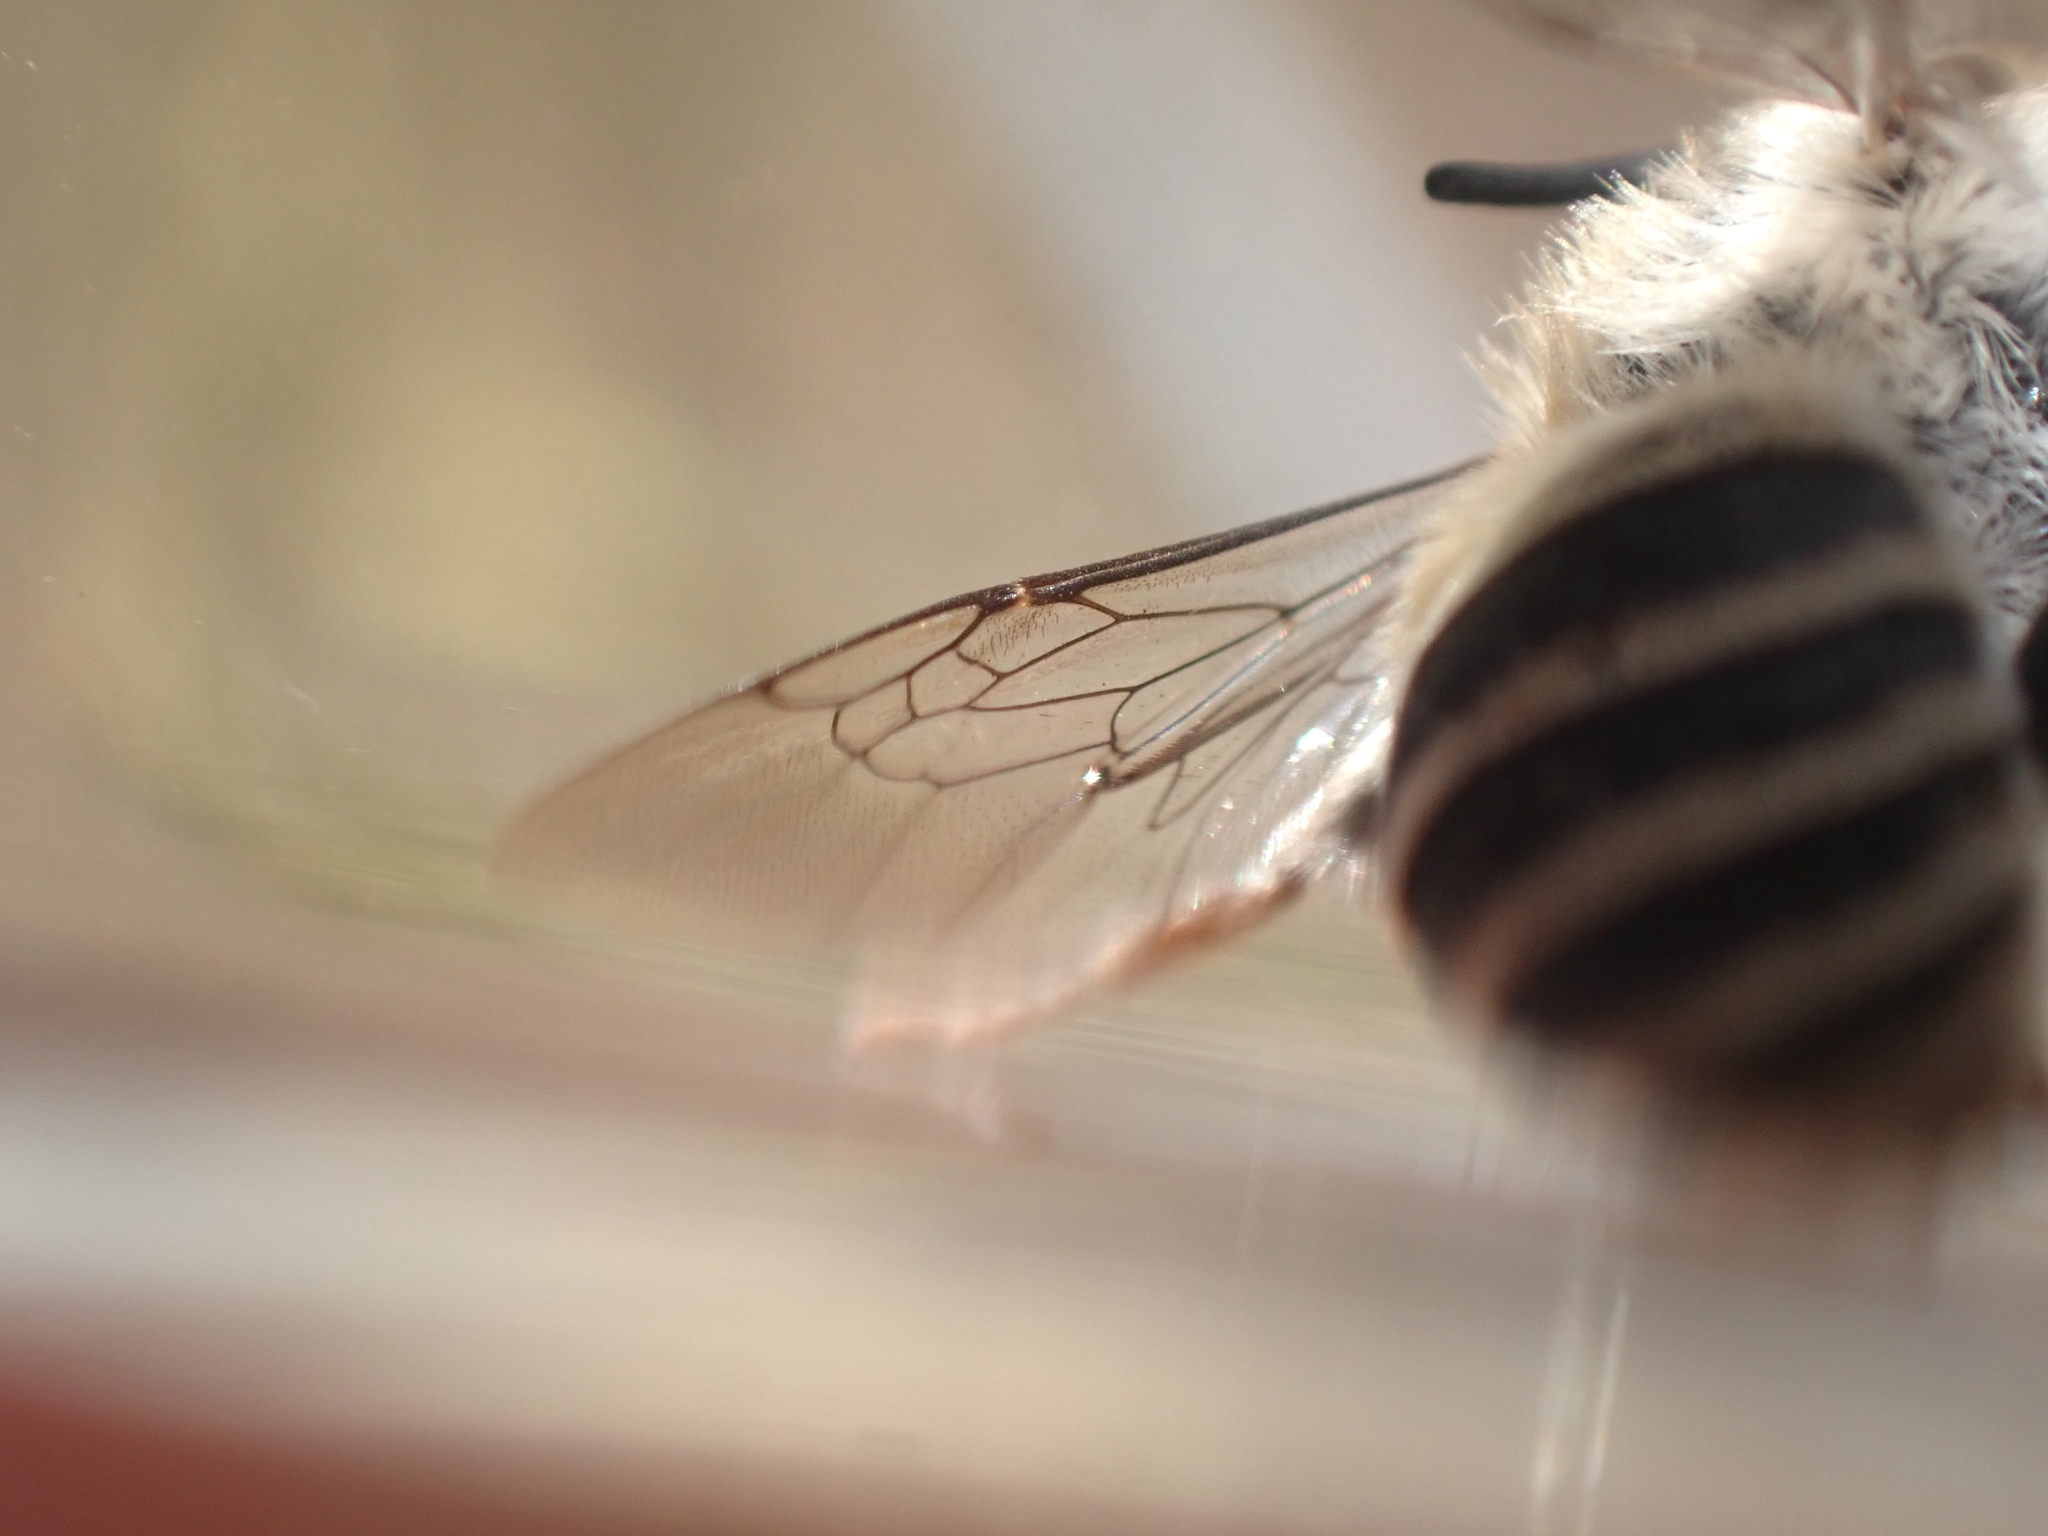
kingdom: Animalia
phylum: Arthropoda
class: Insecta
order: Hymenoptera
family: Apidae
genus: Anthophora
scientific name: Anthophora urbana
